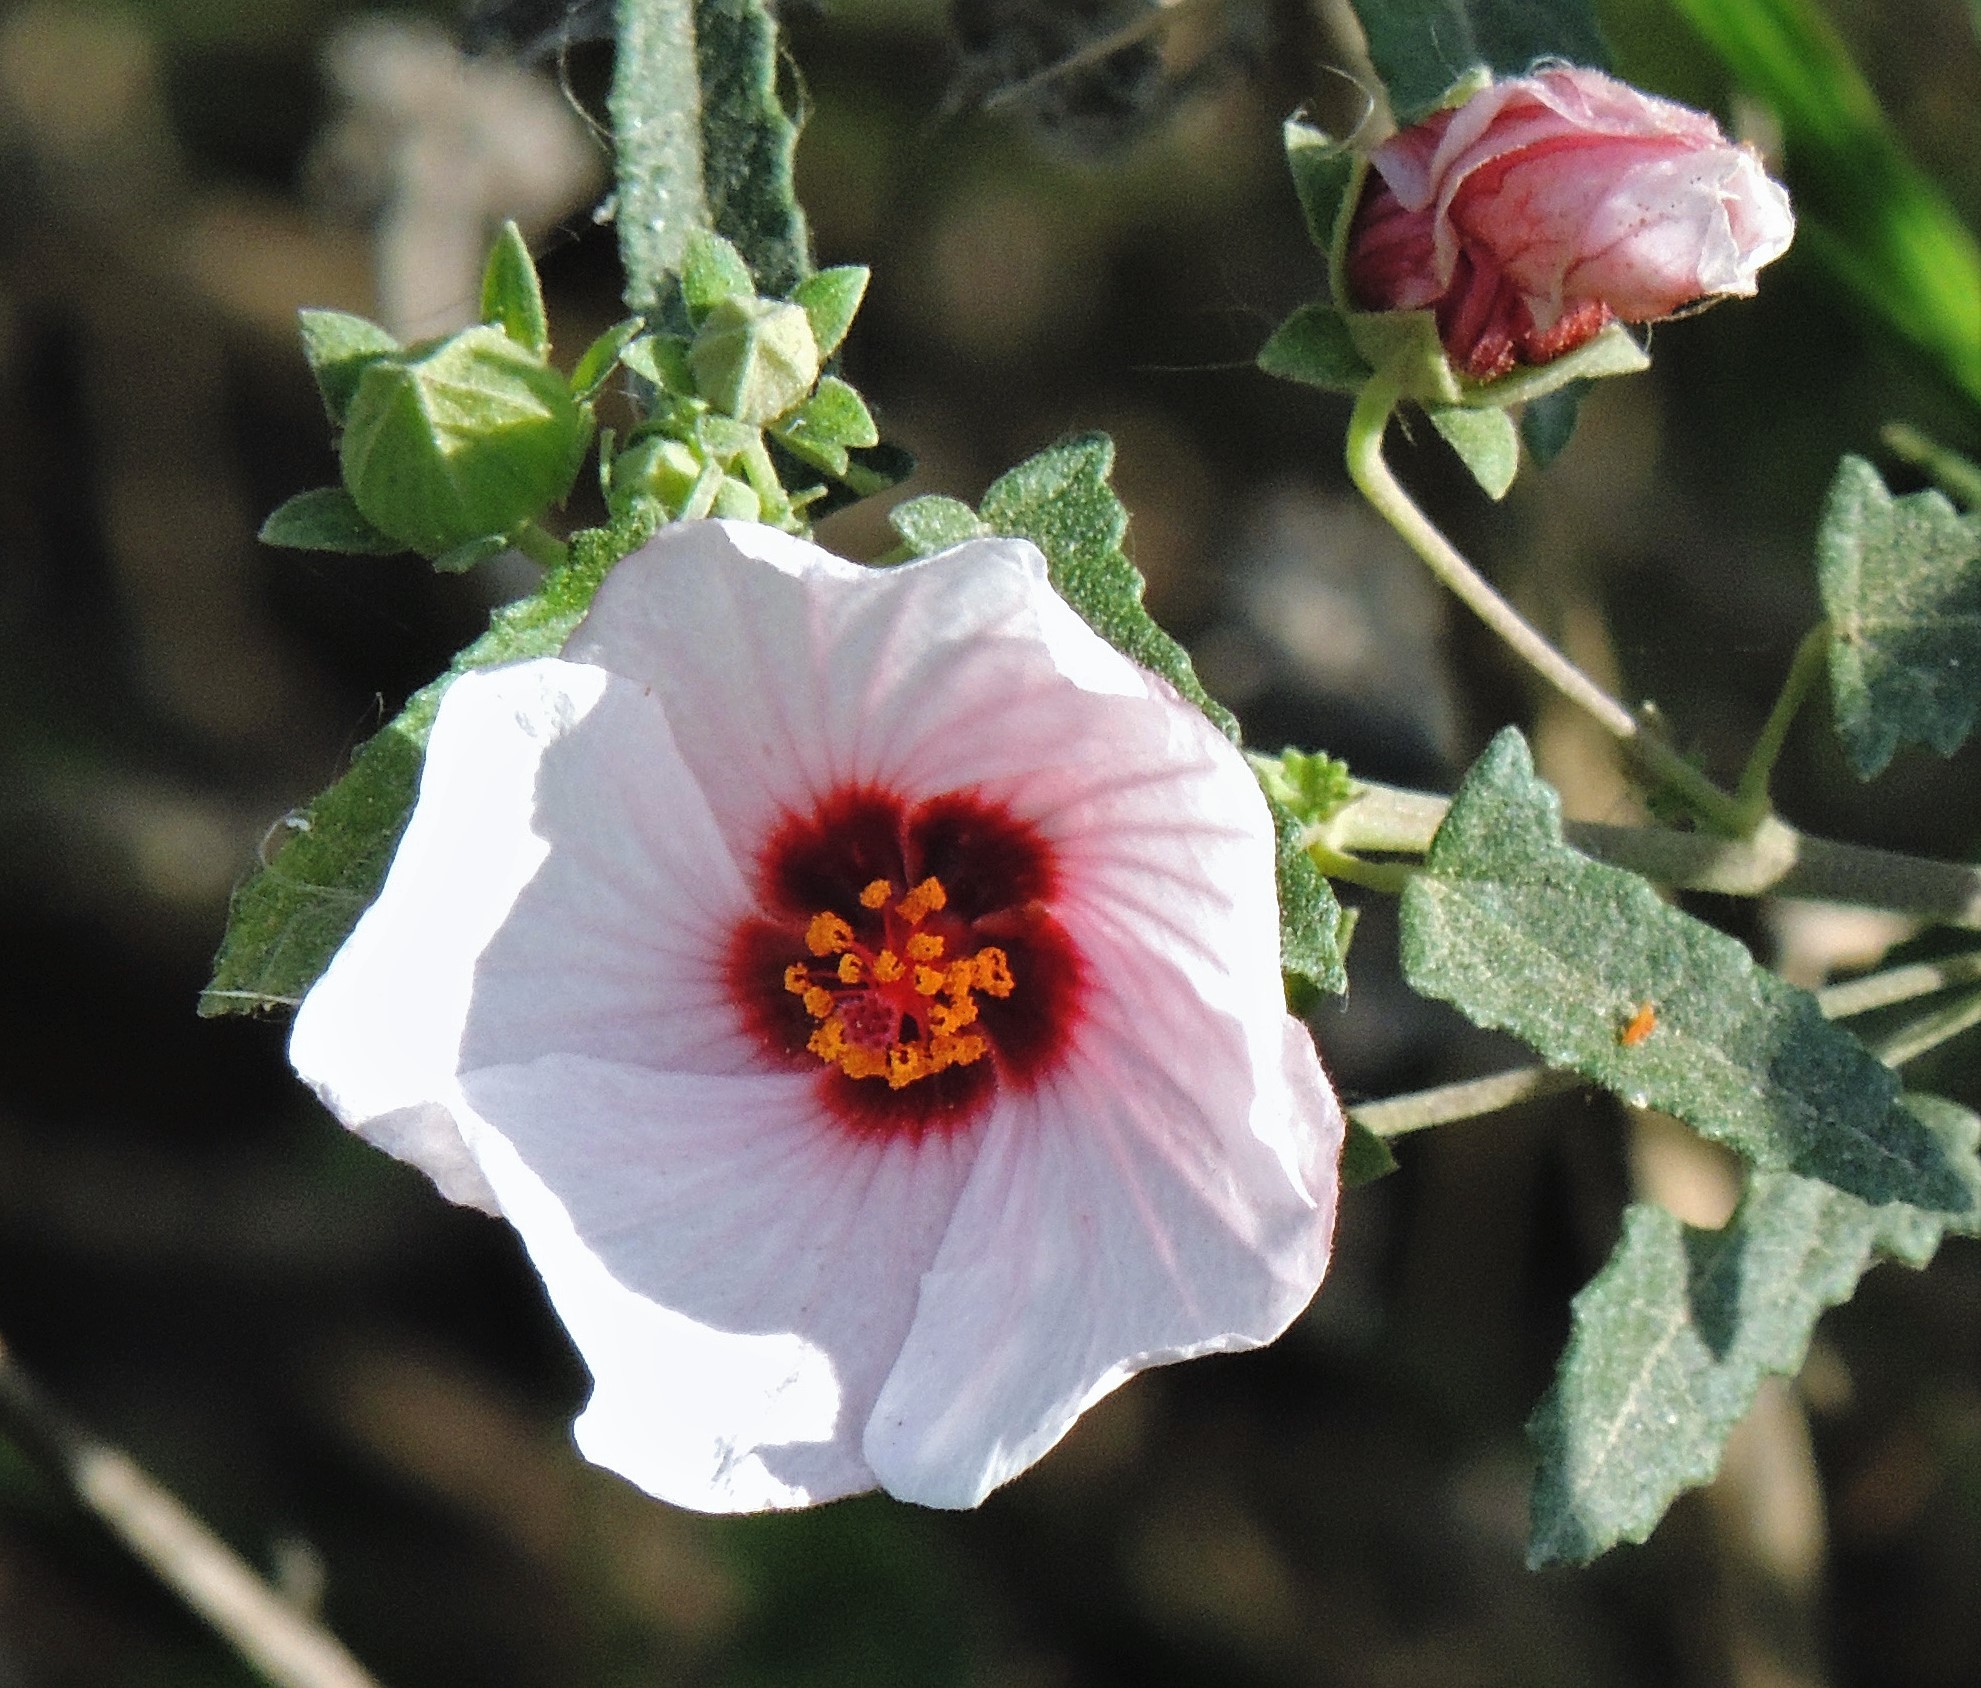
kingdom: Plantae
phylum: Tracheophyta
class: Magnoliopsida
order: Malvales
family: Malvaceae
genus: Pavonia
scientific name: Pavonia hastata
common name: Spearleaf swampmallow
